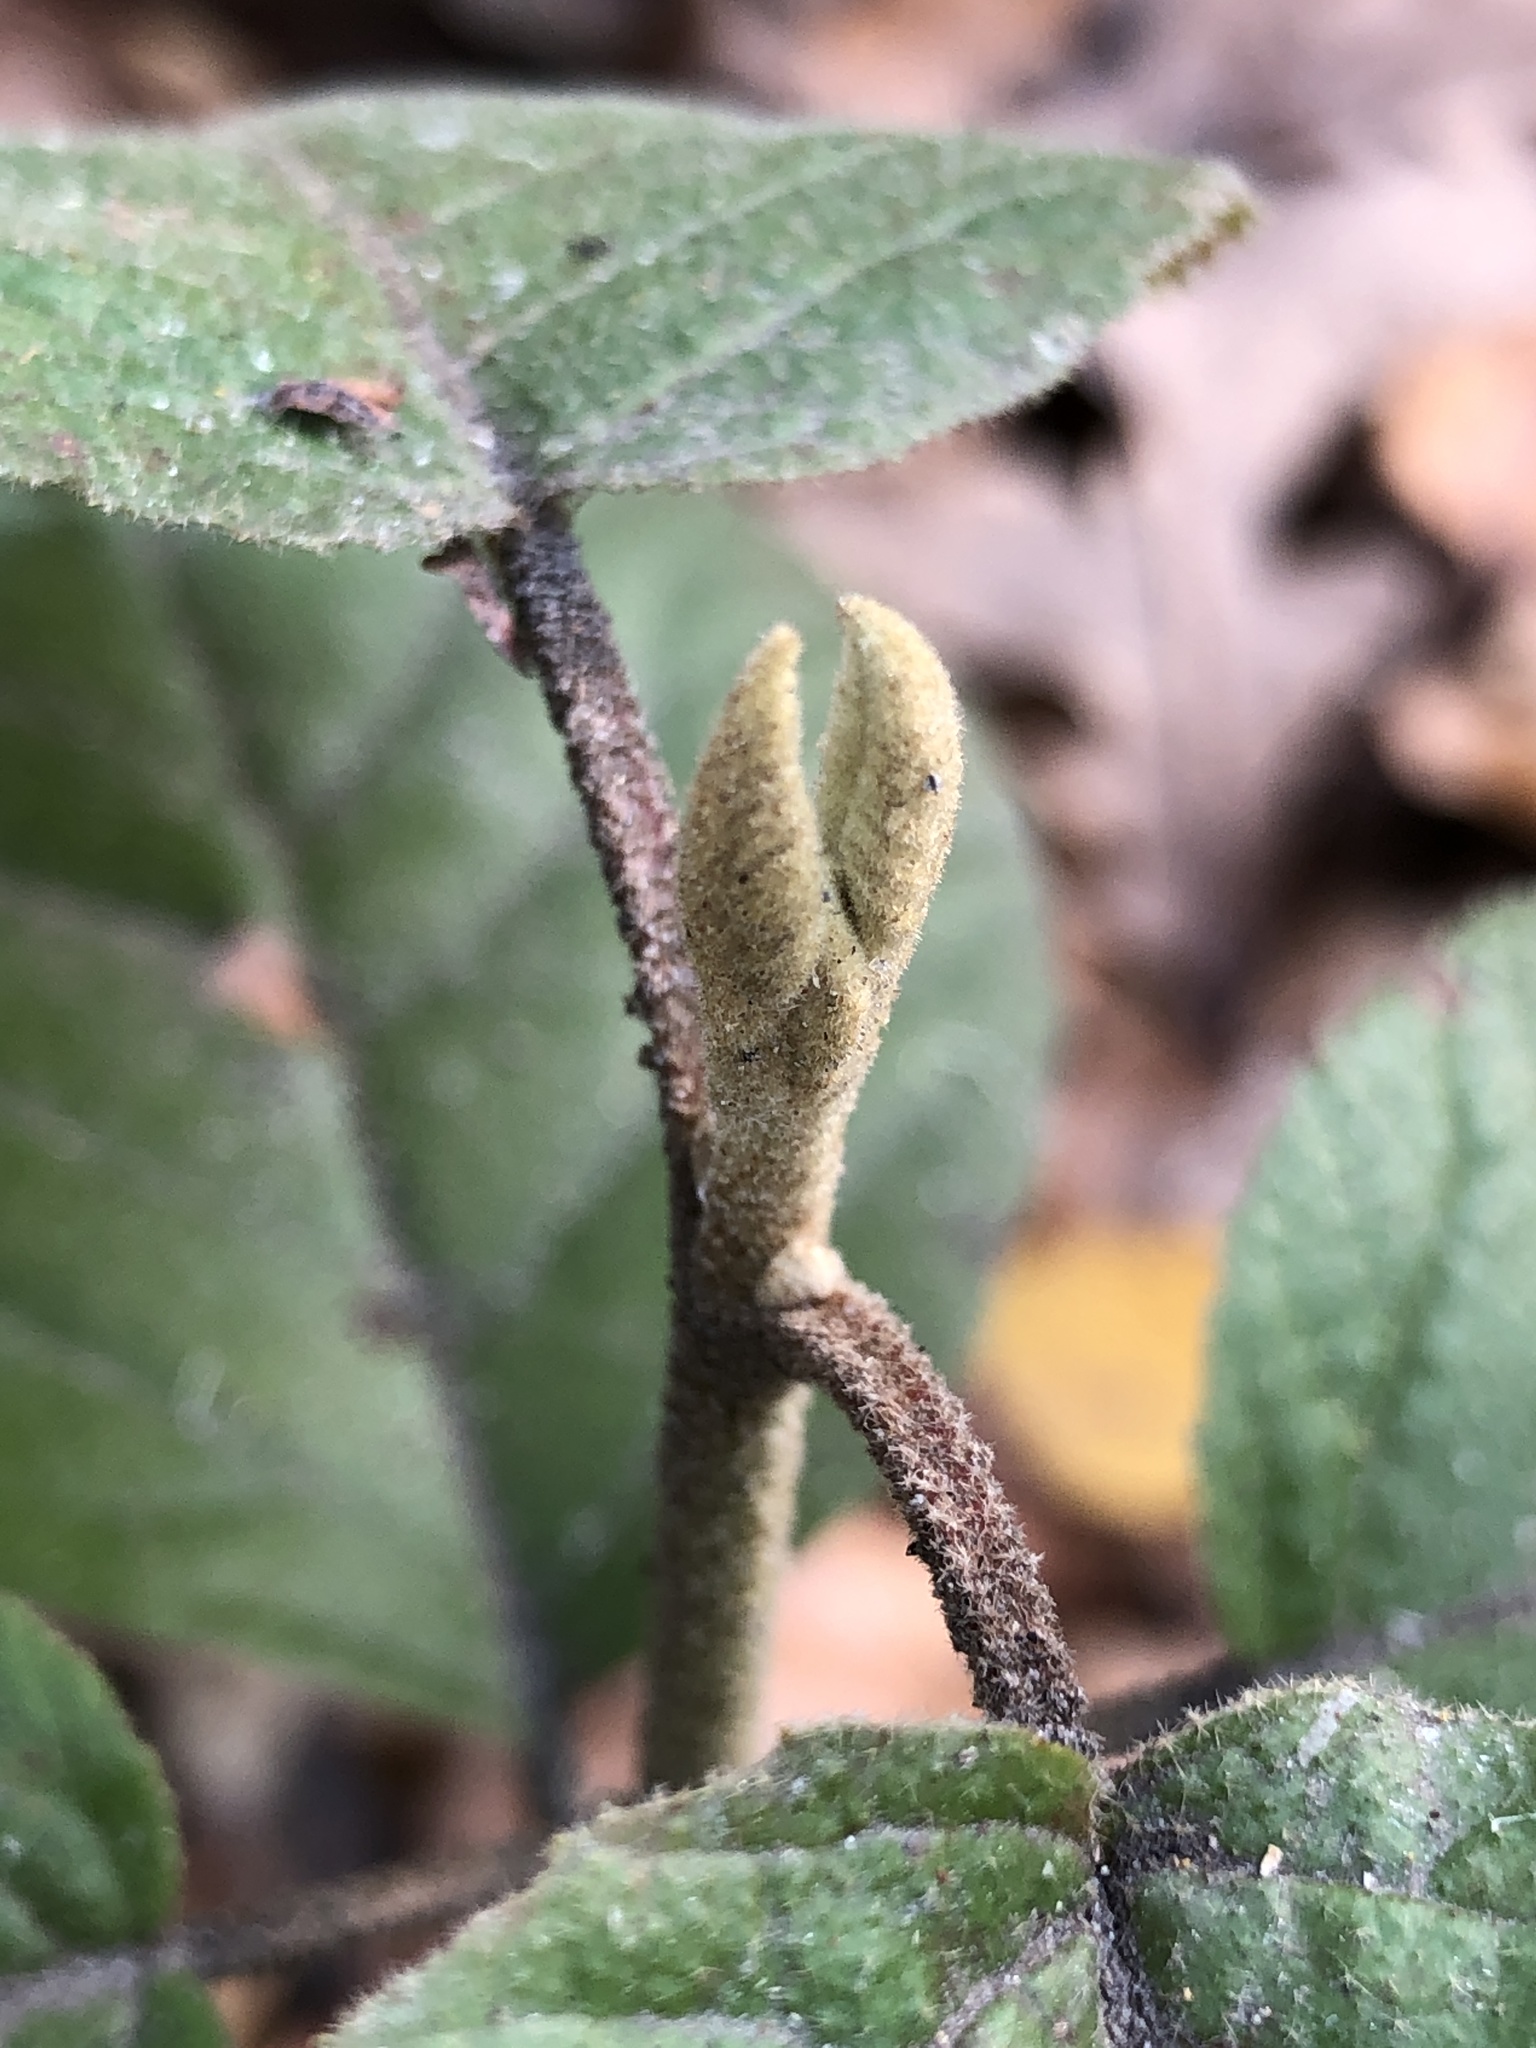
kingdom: Plantae
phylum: Tracheophyta
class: Magnoliopsida
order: Dipsacales
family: Viburnaceae
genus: Viburnum
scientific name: Viburnum lantana
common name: Wayfaring tree
